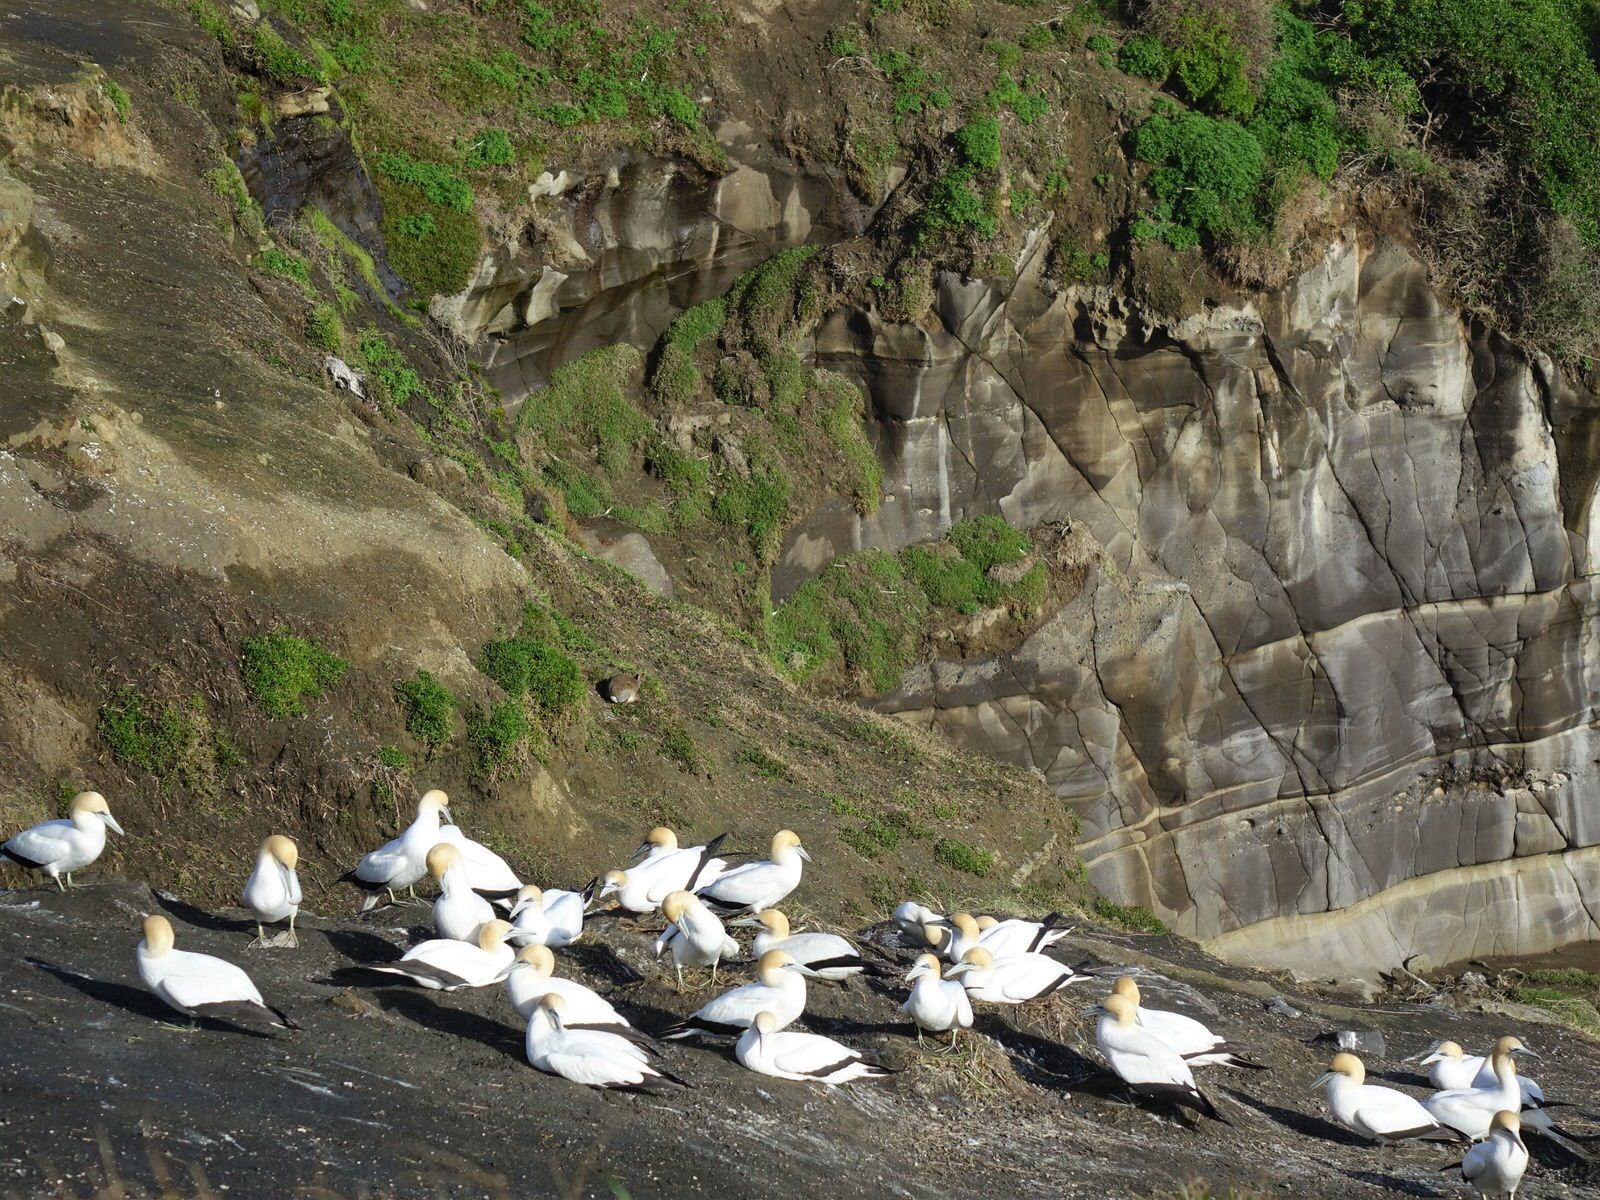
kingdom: Animalia
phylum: Chordata
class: Mammalia
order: Lagomorpha
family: Leporidae
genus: Oryctolagus
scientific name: Oryctolagus cuniculus
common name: European rabbit
